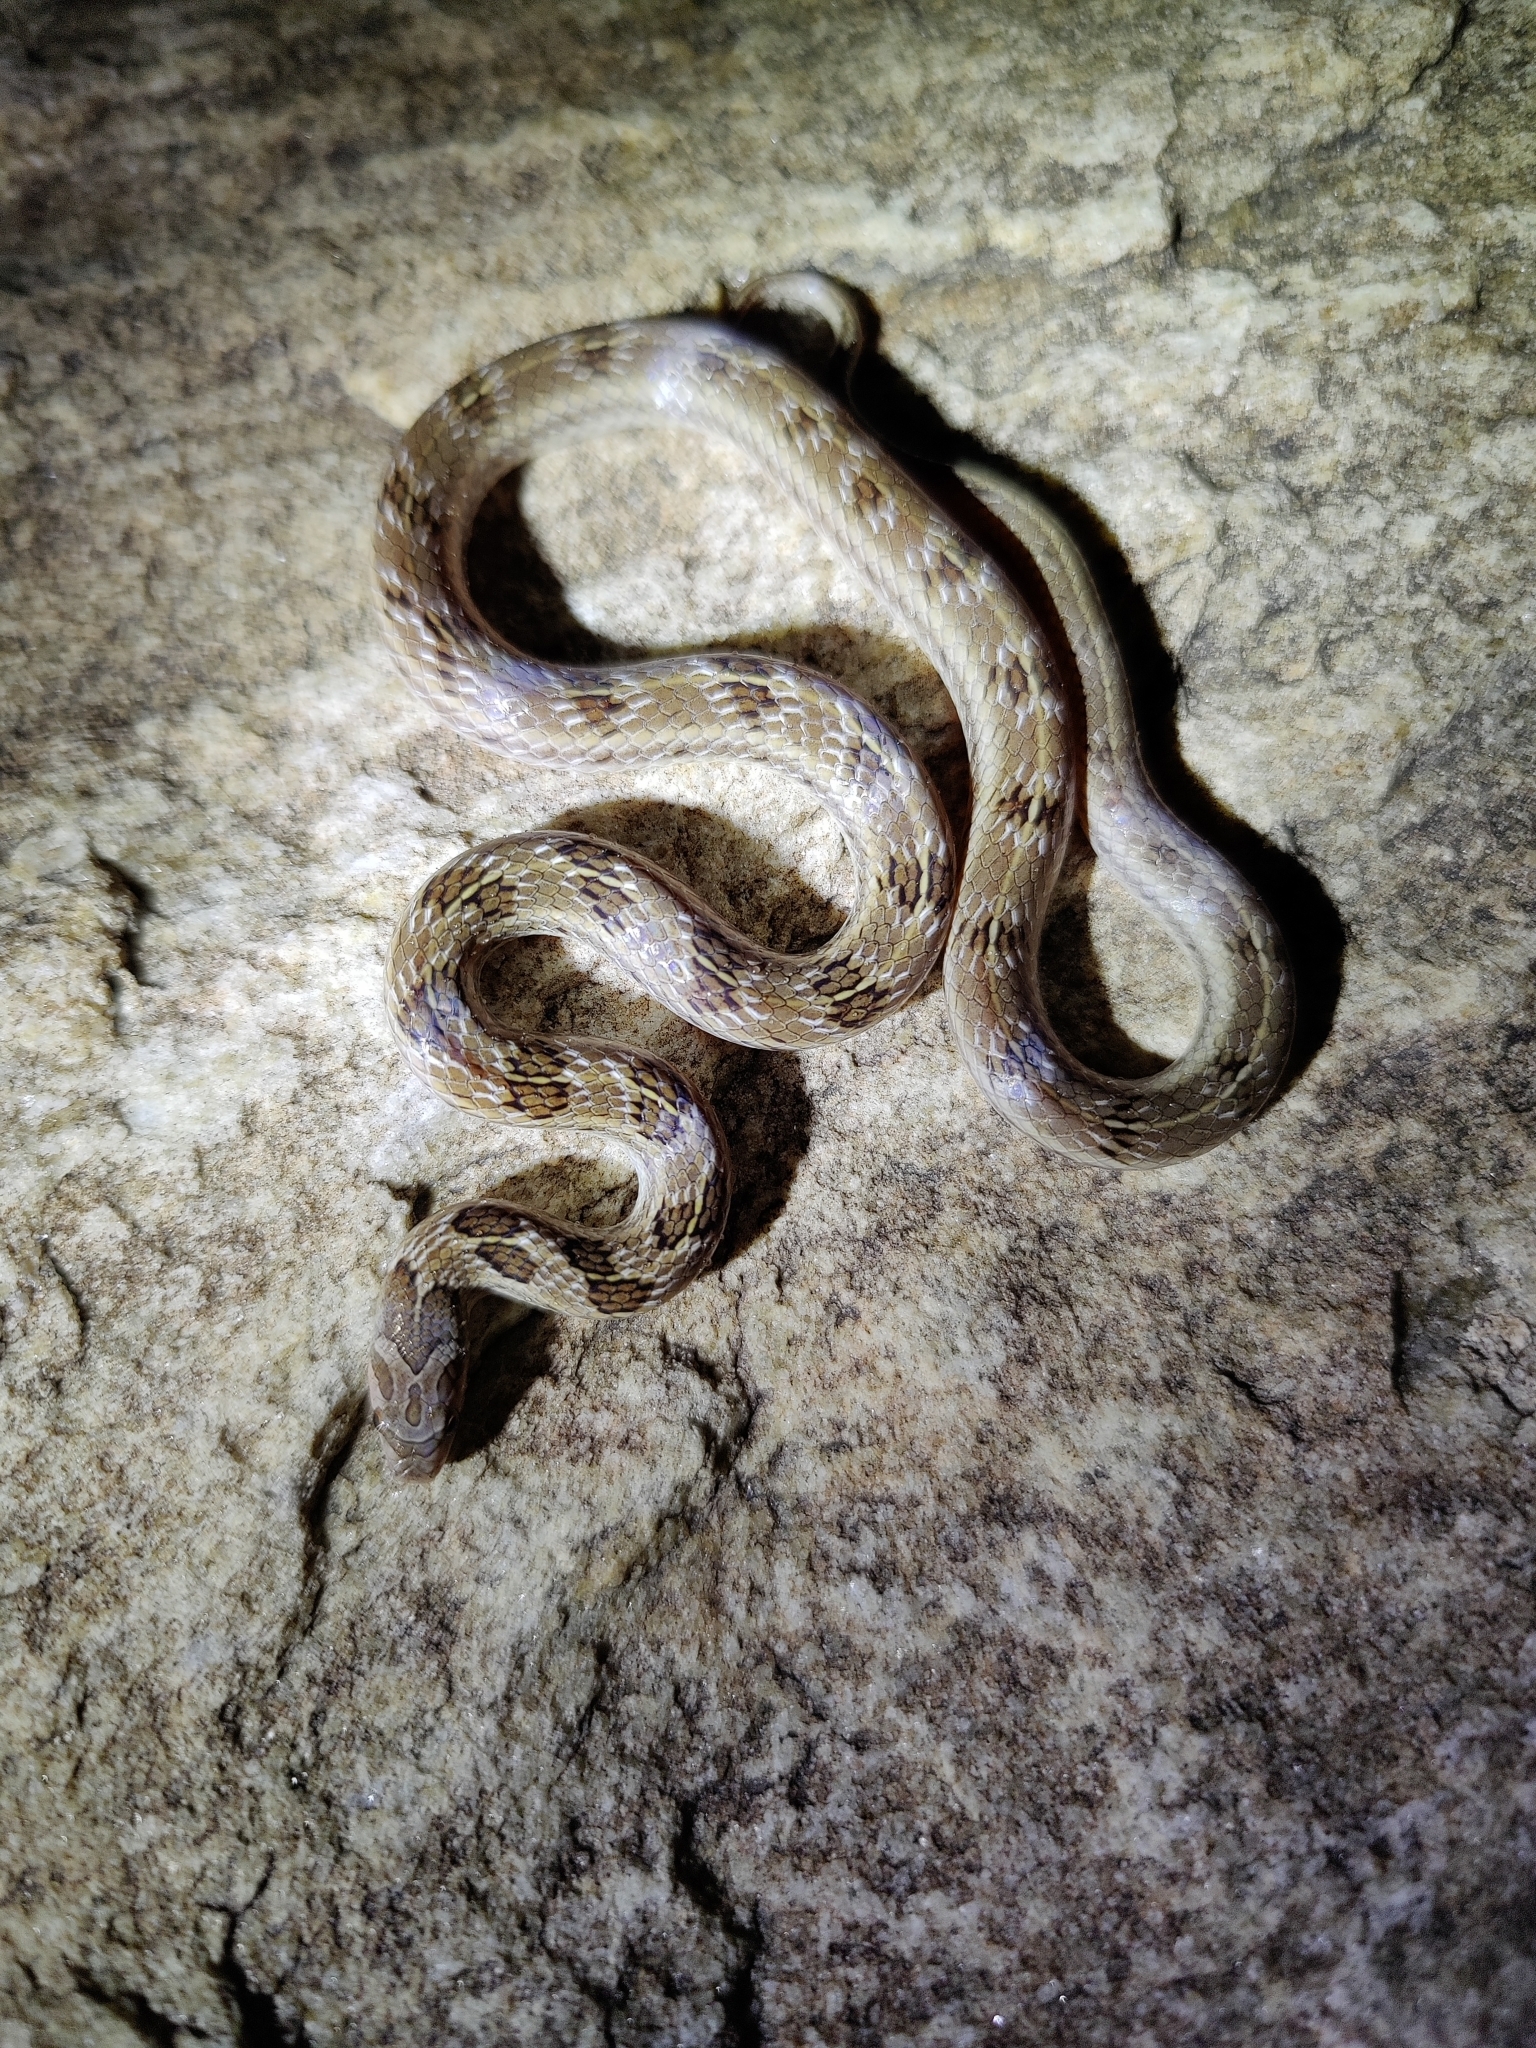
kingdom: Animalia
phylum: Chordata
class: Squamata
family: Colubridae
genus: Oligodon
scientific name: Oligodon taeniolatus
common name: Loos snake
